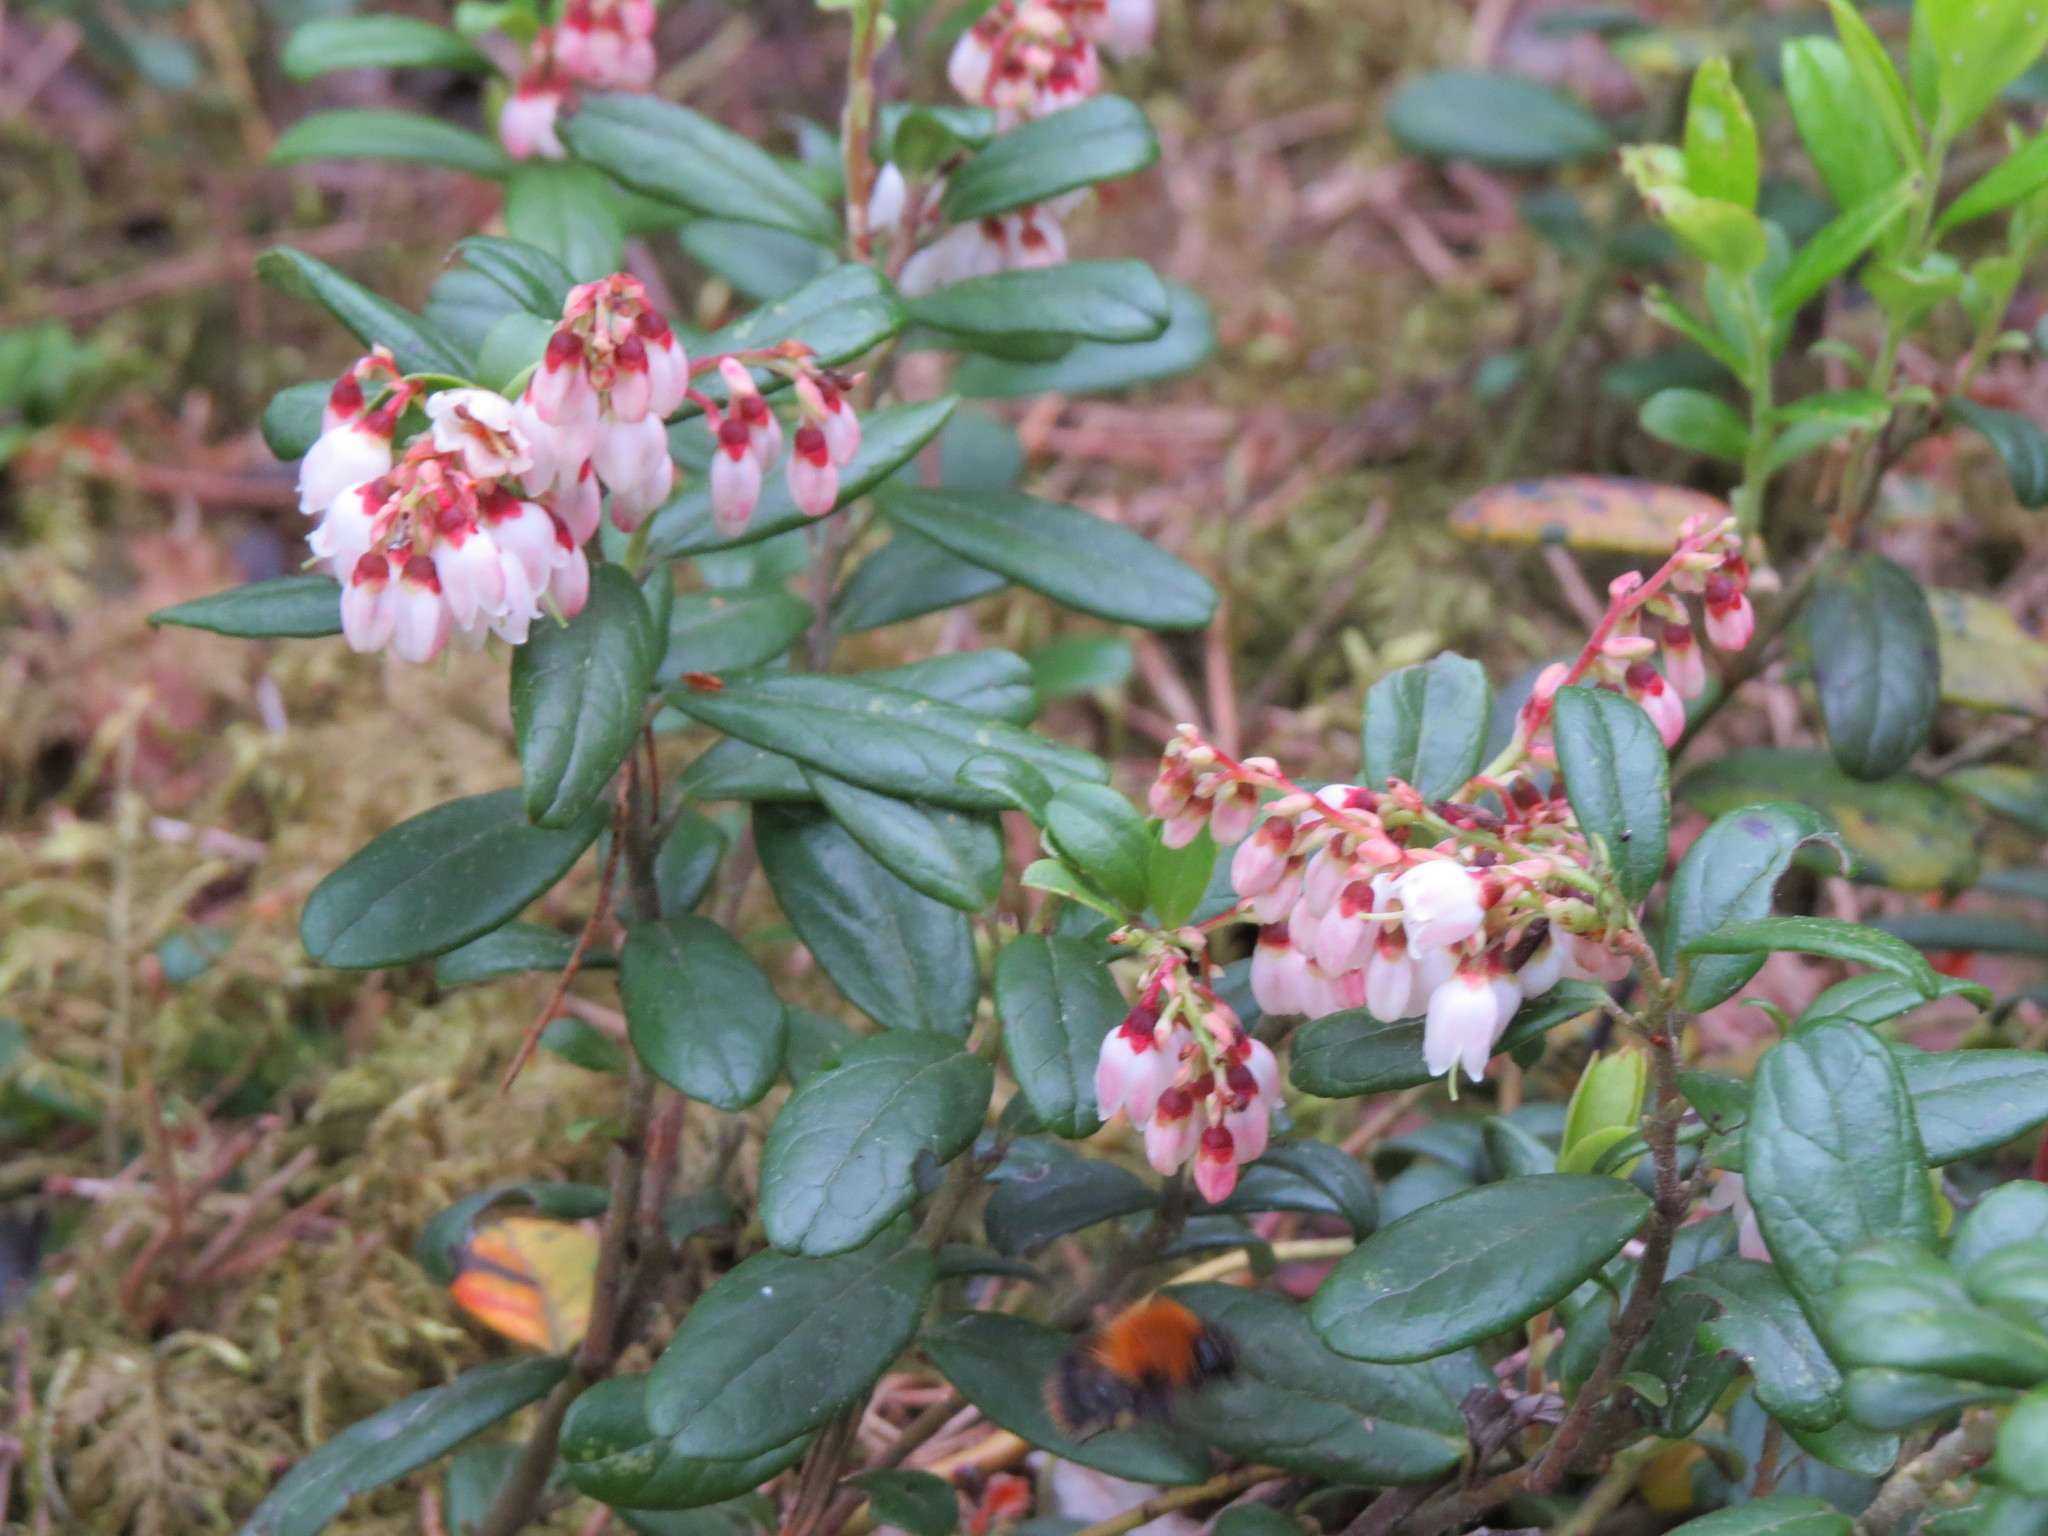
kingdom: Plantae
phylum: Tracheophyta
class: Magnoliopsida
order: Ericales
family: Ericaceae
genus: Vaccinium
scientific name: Vaccinium vitis-idaea
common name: Cowberry
